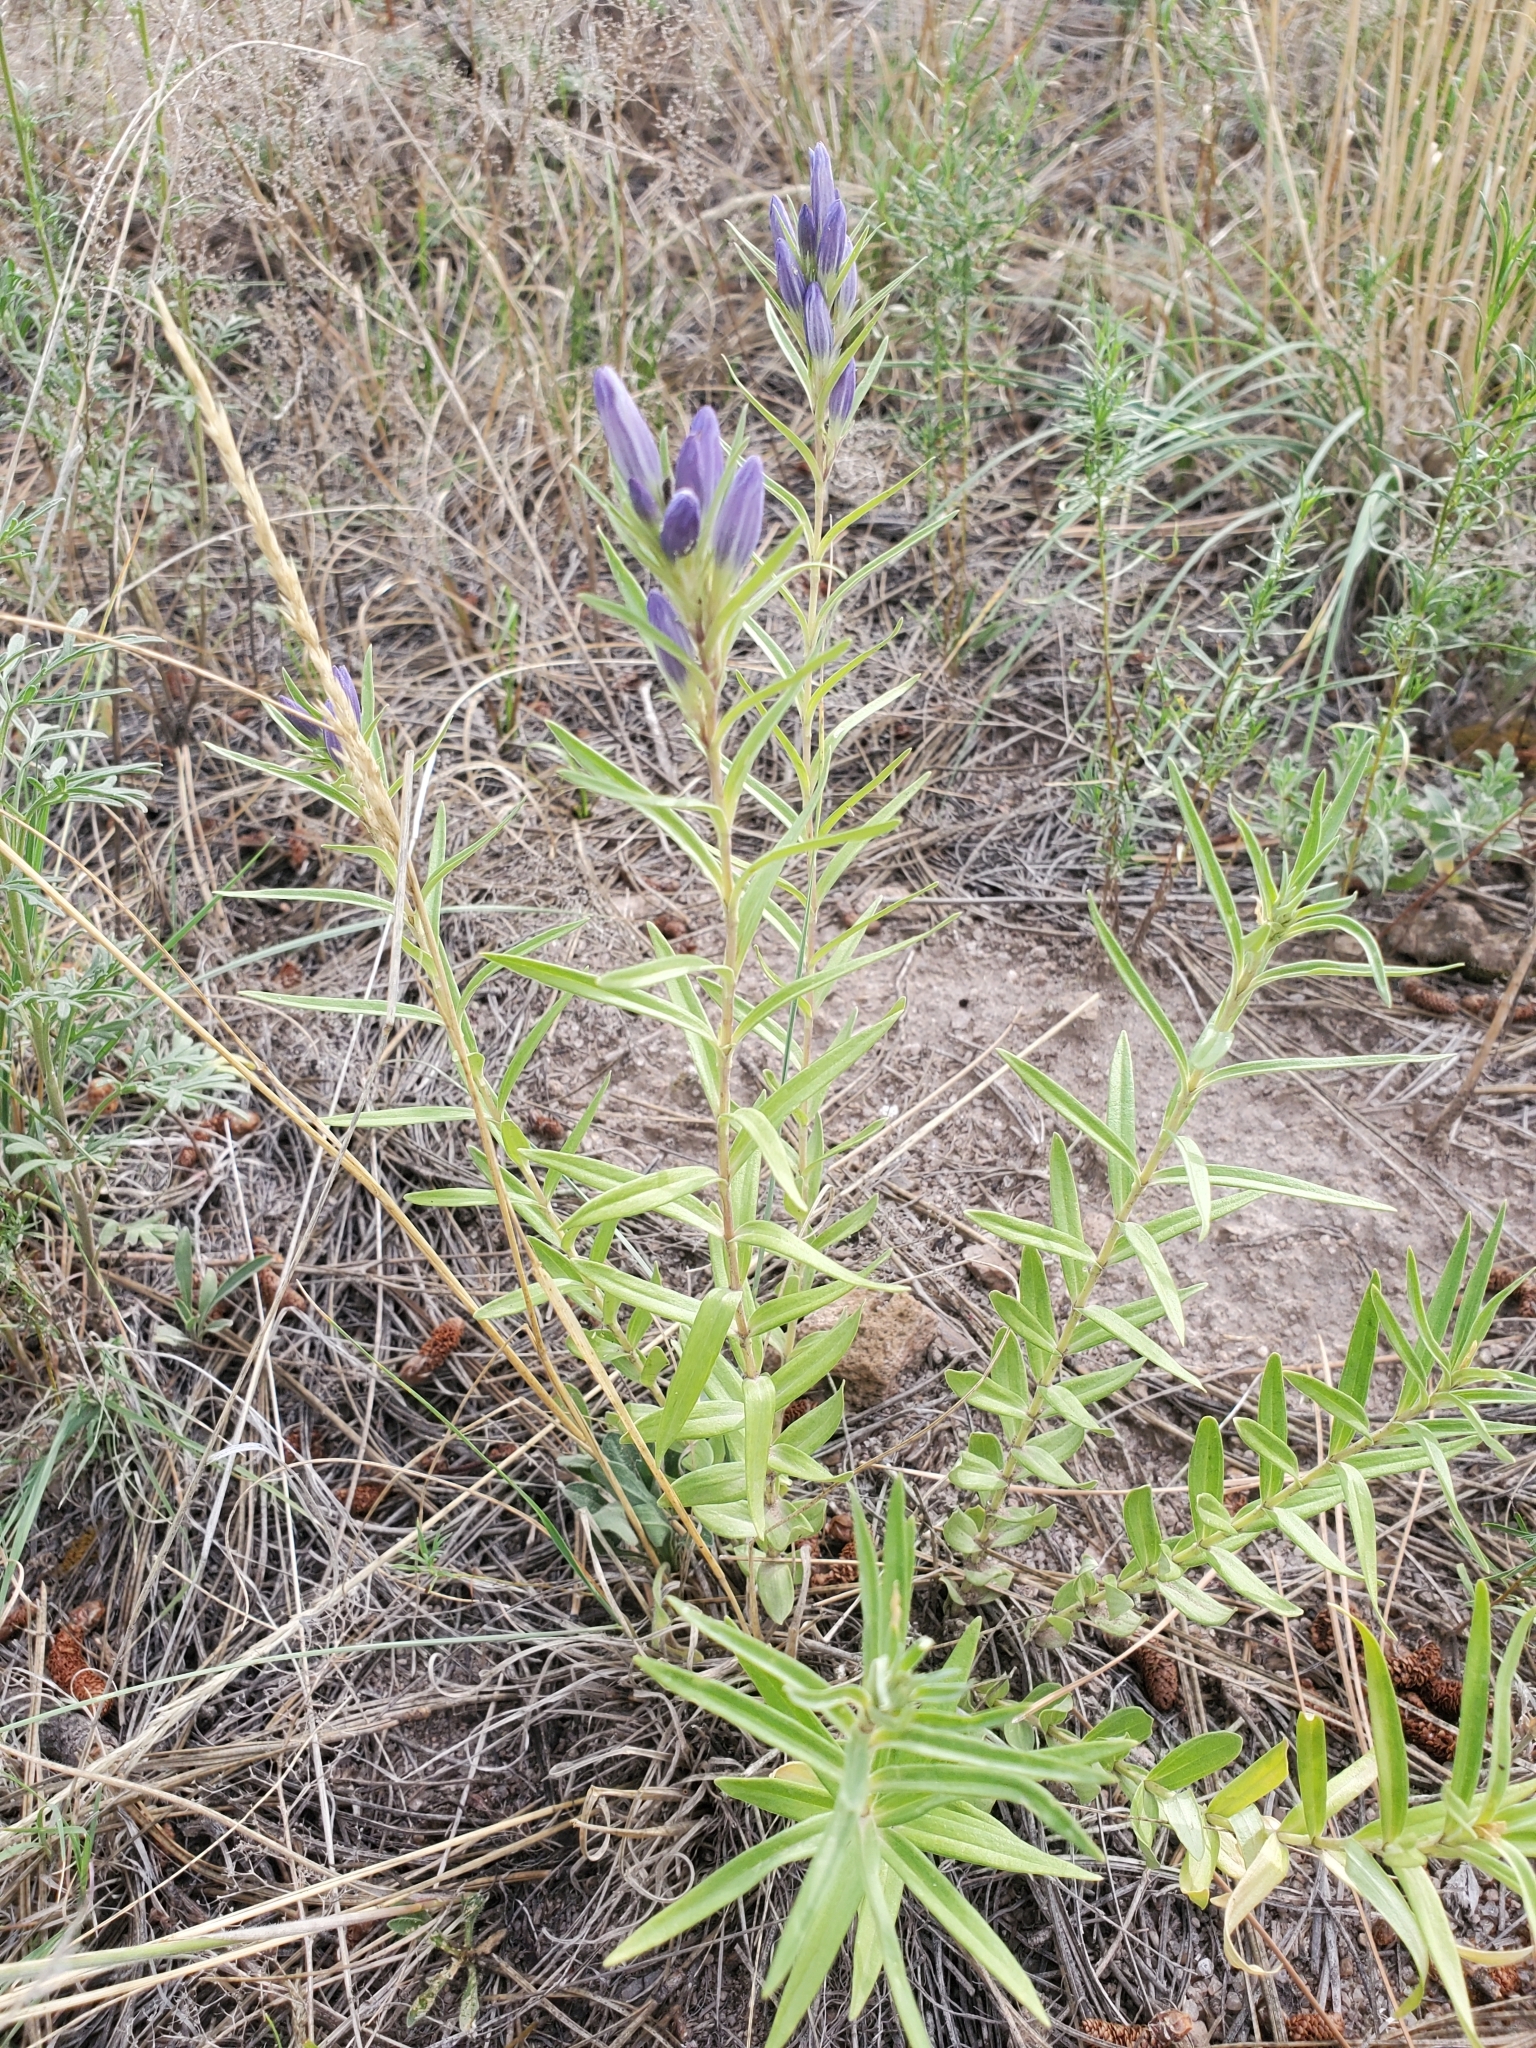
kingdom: Plantae
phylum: Tracheophyta
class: Magnoliopsida
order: Gentianales
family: Gentianaceae
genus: Gentiana
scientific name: Gentiana affinis
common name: Rocky mountain gentian
